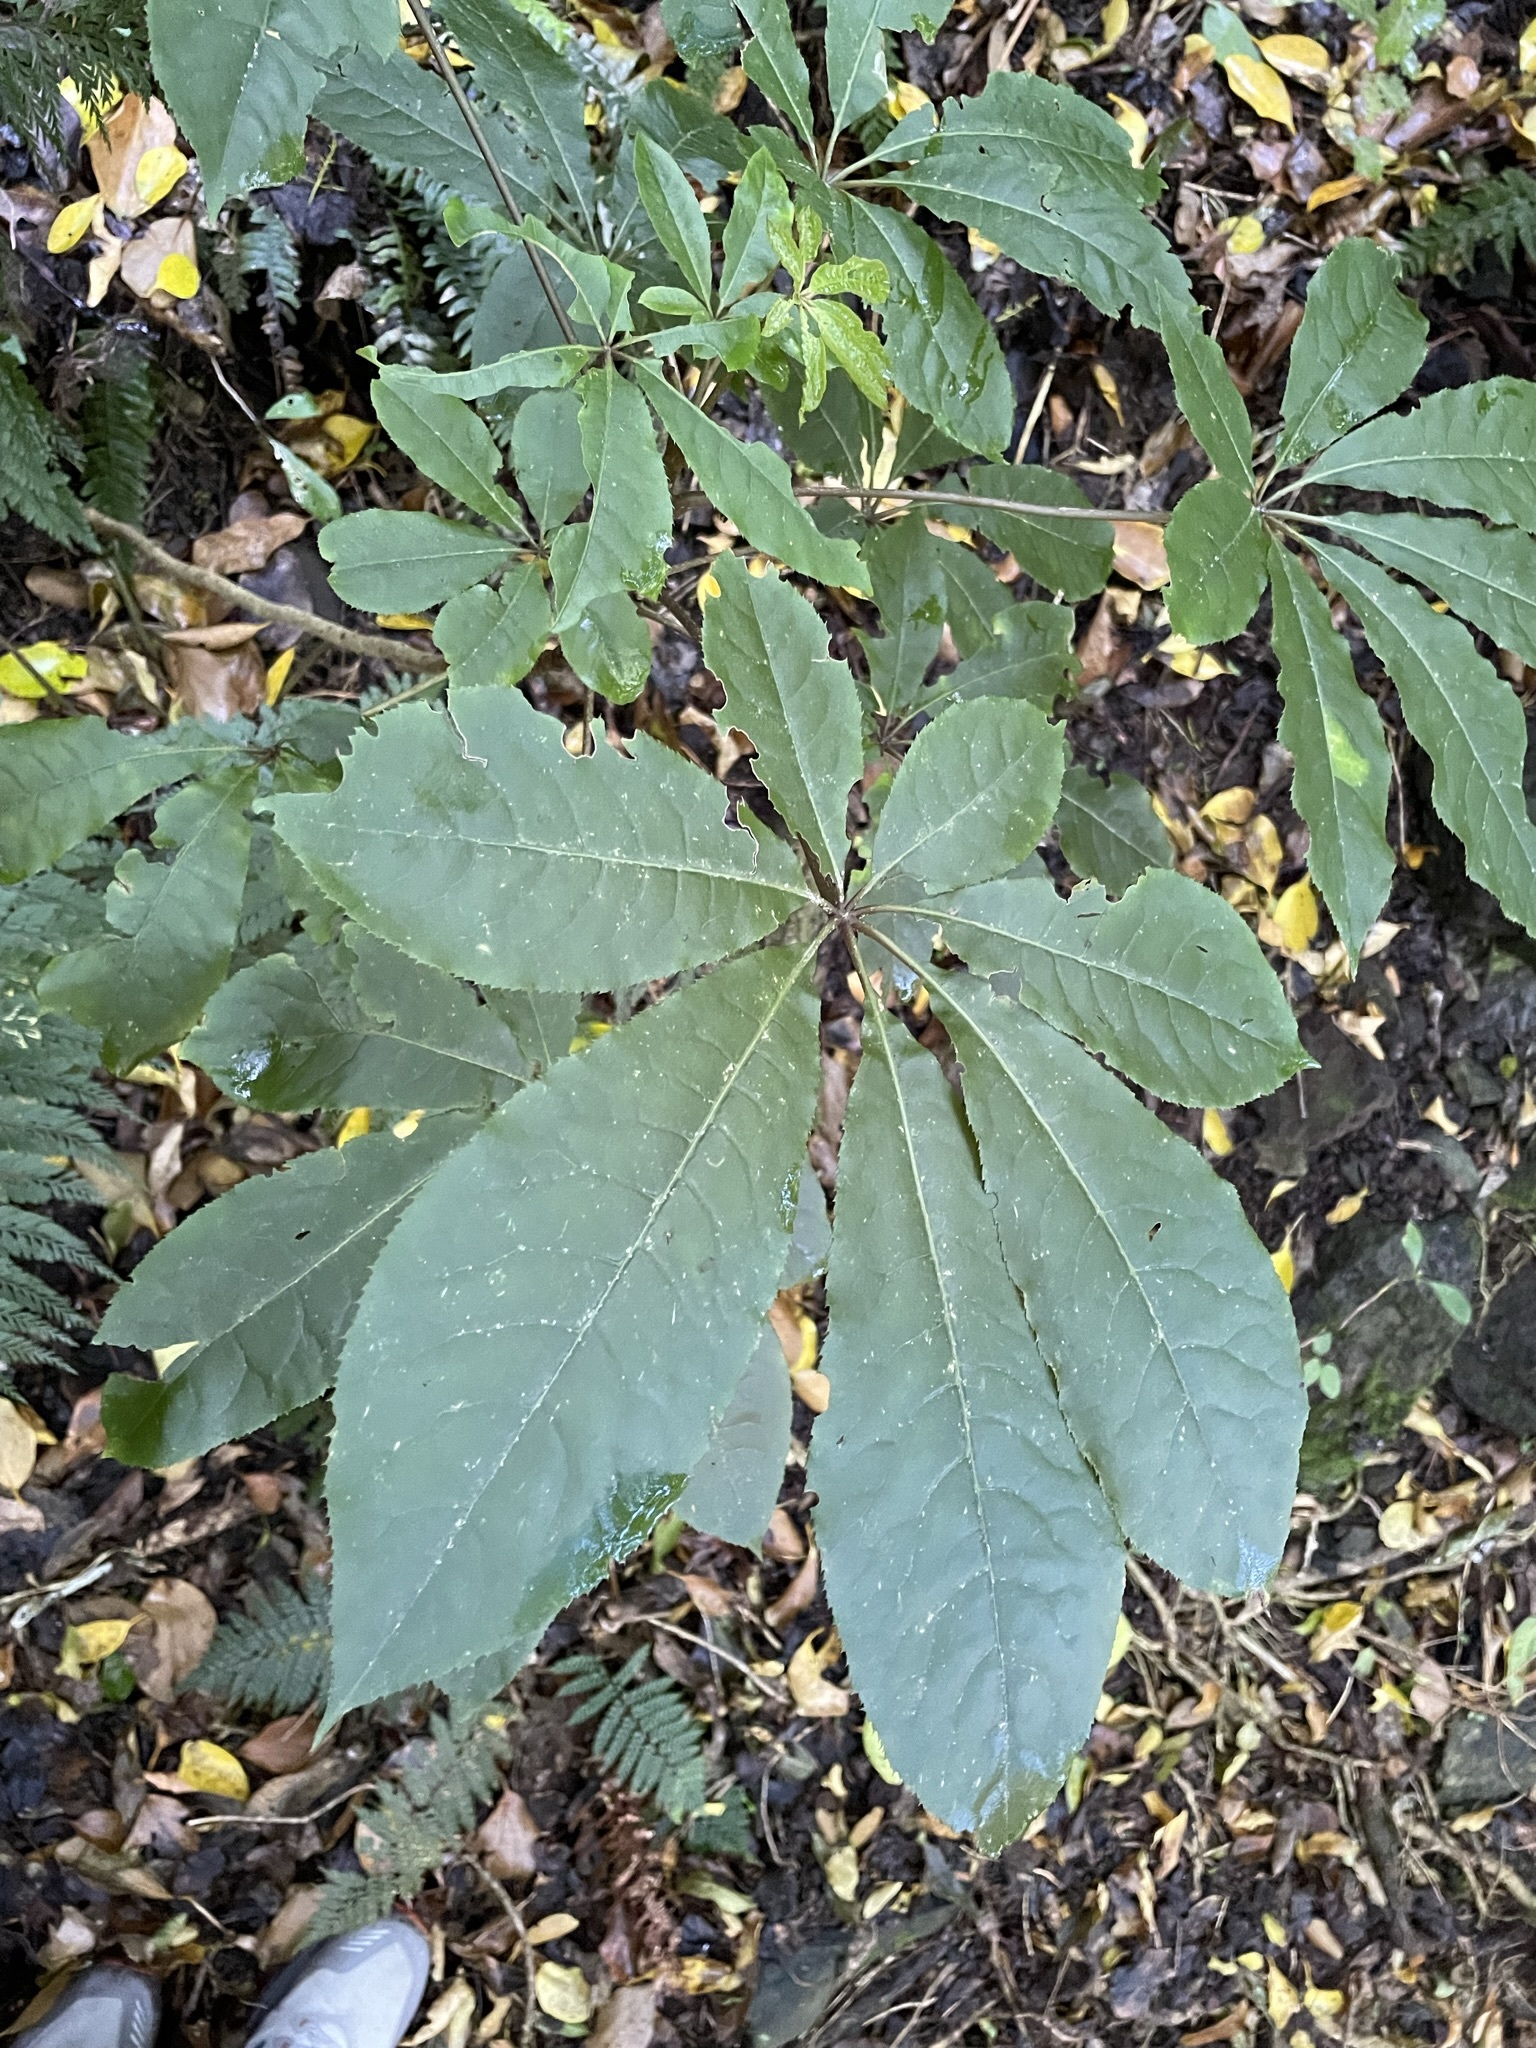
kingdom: Plantae
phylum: Tracheophyta
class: Magnoliopsida
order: Apiales
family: Araliaceae
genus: Schefflera
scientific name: Schefflera digitata
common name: Pate
